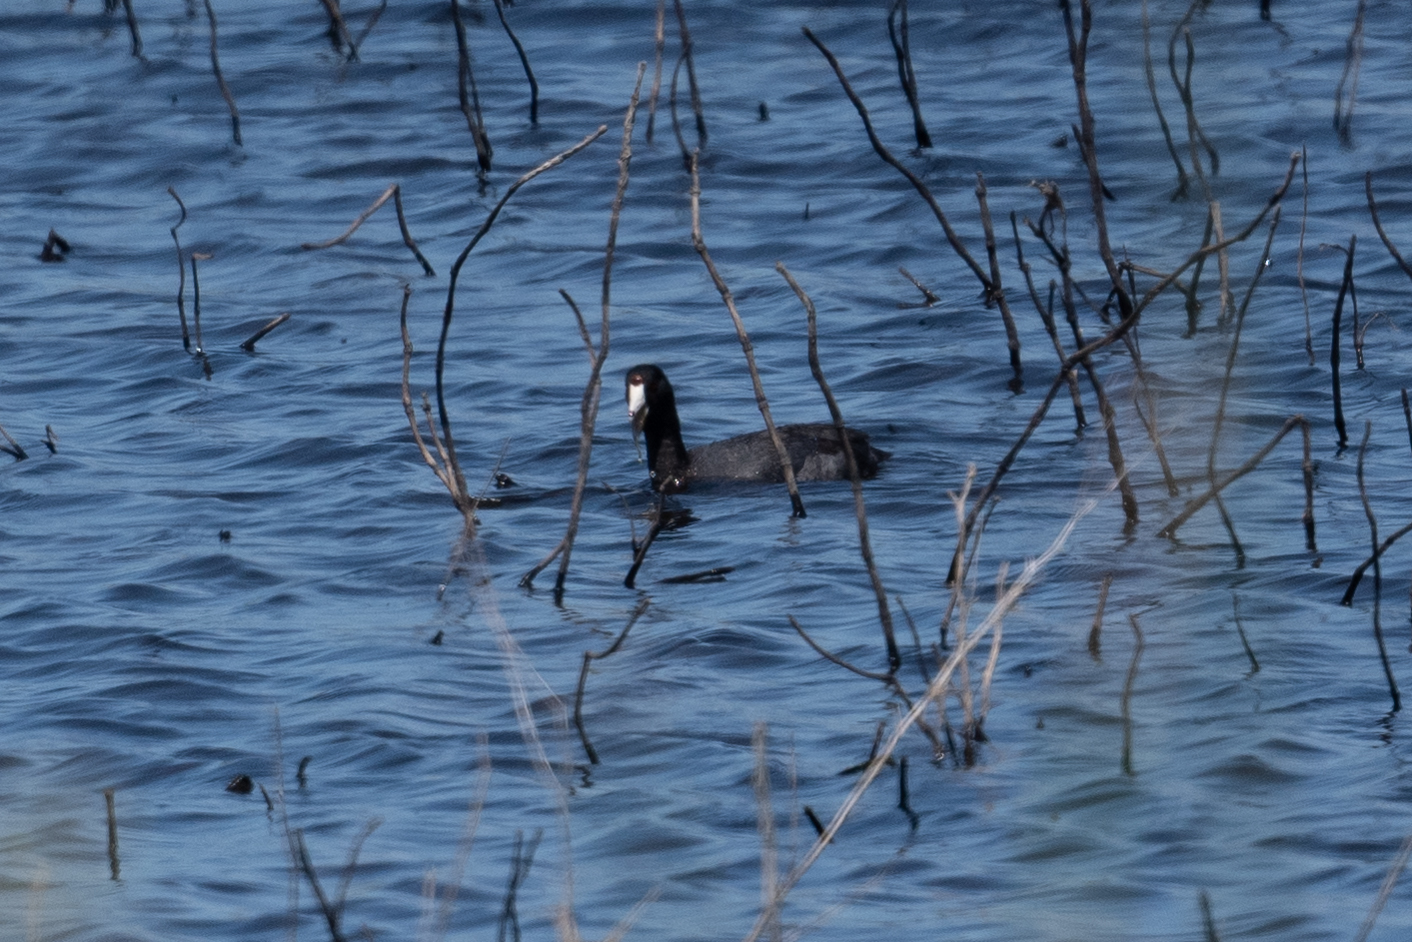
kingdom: Animalia
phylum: Chordata
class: Aves
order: Gruiformes
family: Rallidae
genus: Fulica
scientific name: Fulica americana
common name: American coot
